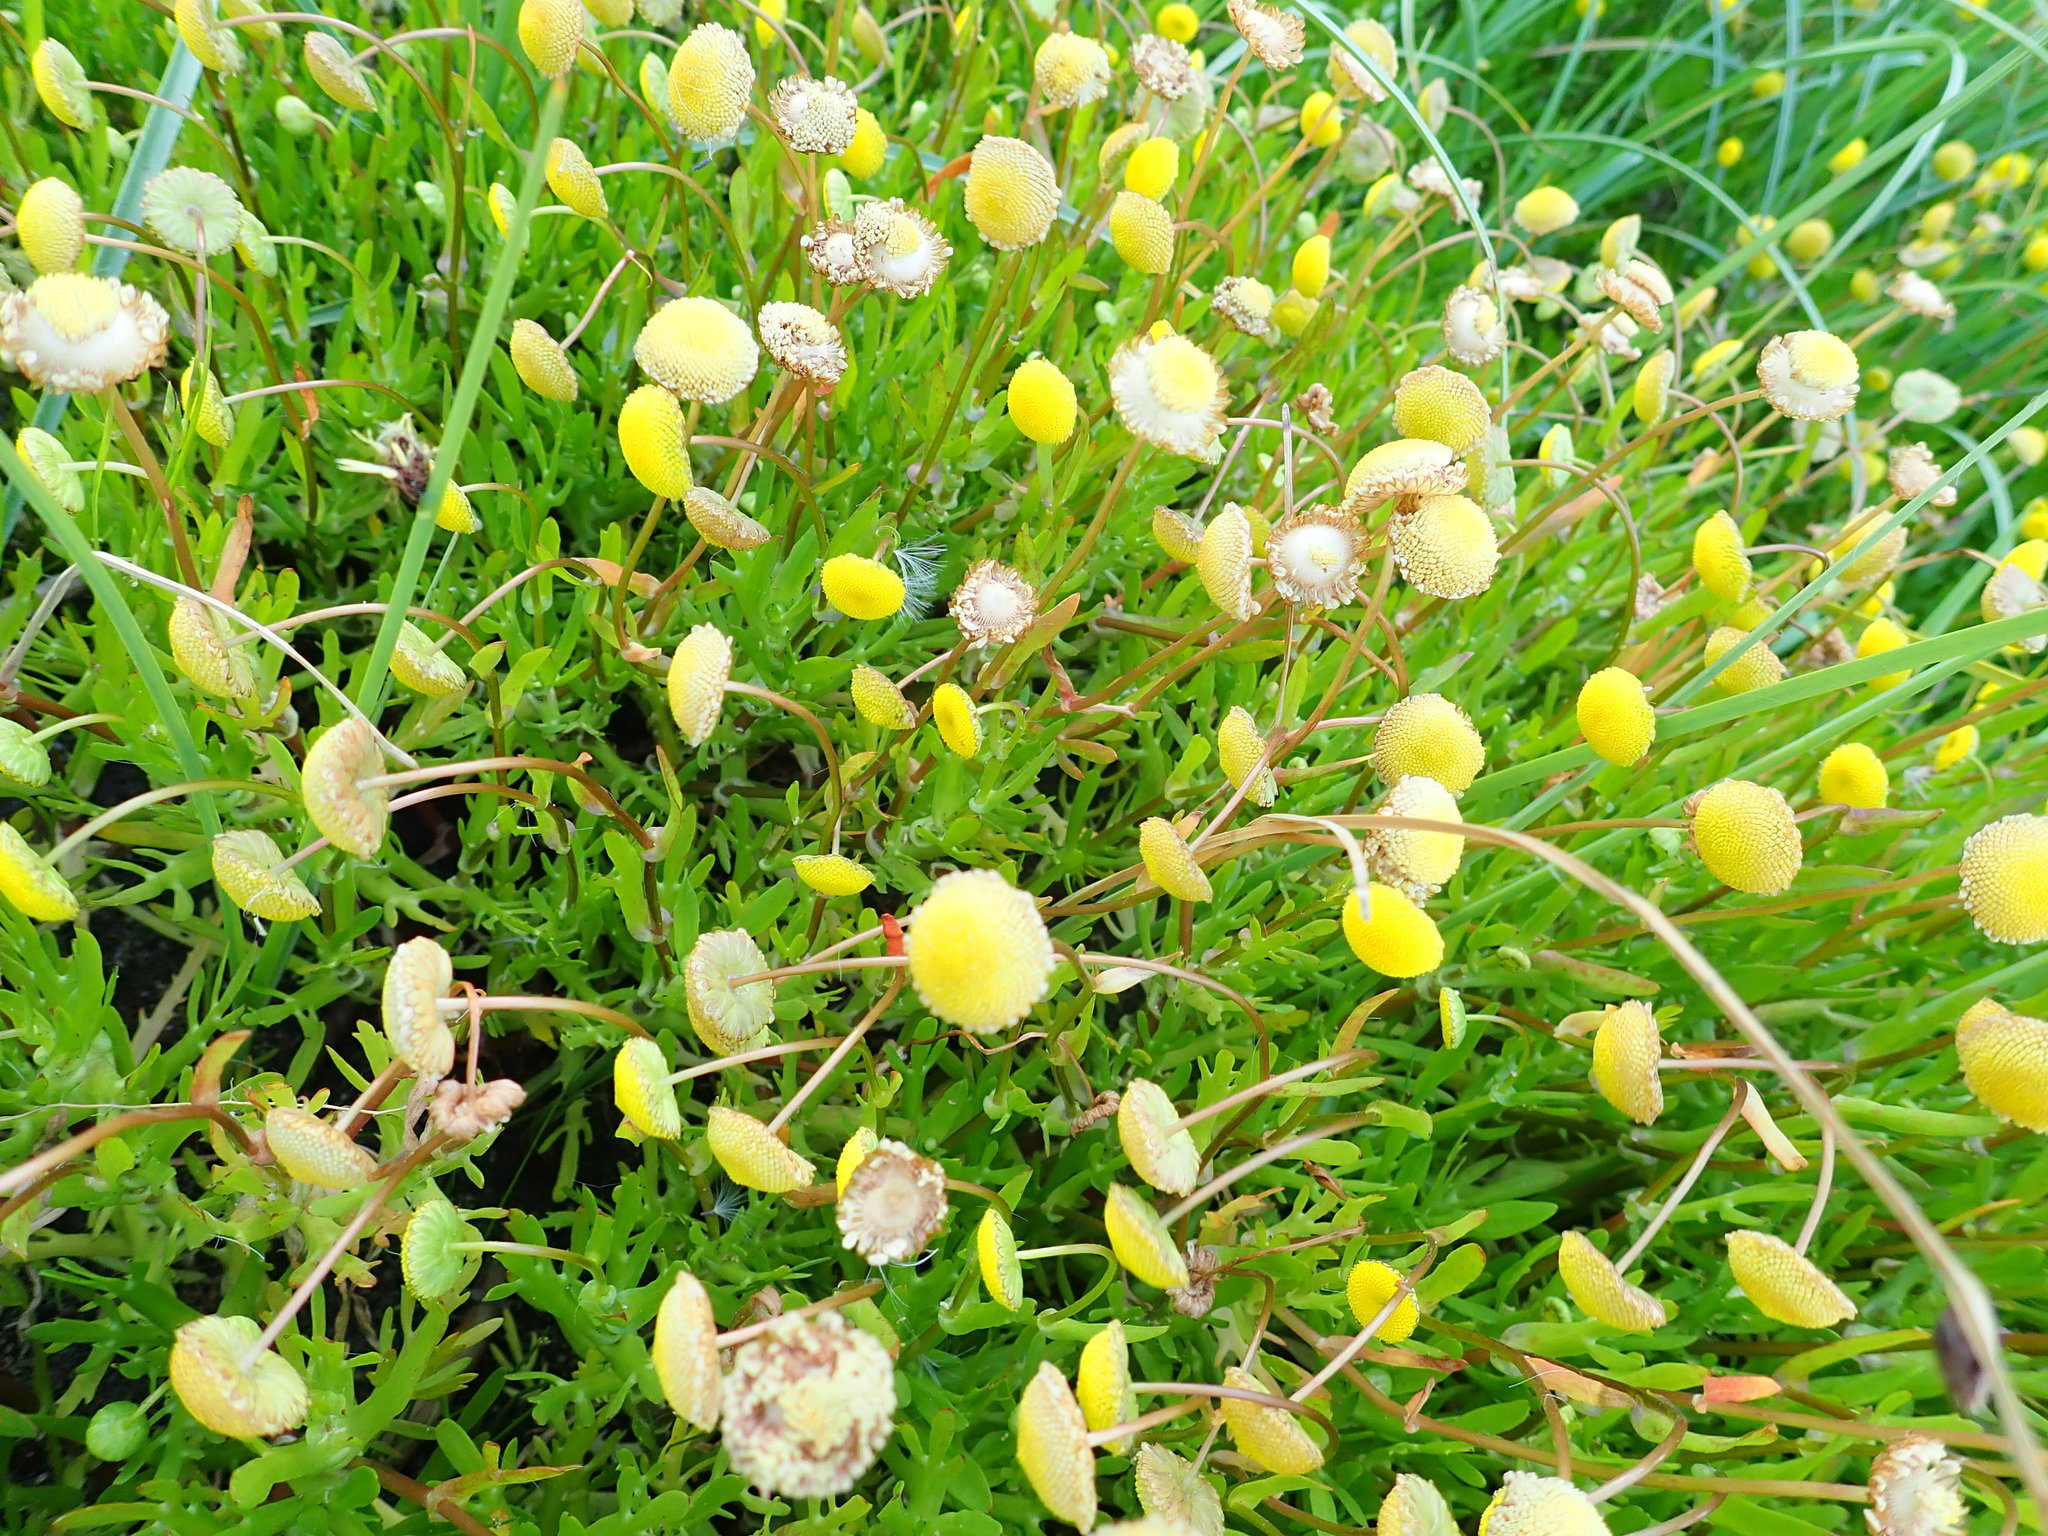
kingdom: Plantae
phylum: Tracheophyta
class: Magnoliopsida
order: Asterales
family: Asteraceae
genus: Cotula
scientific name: Cotula coronopifolia
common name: Buttonweed
